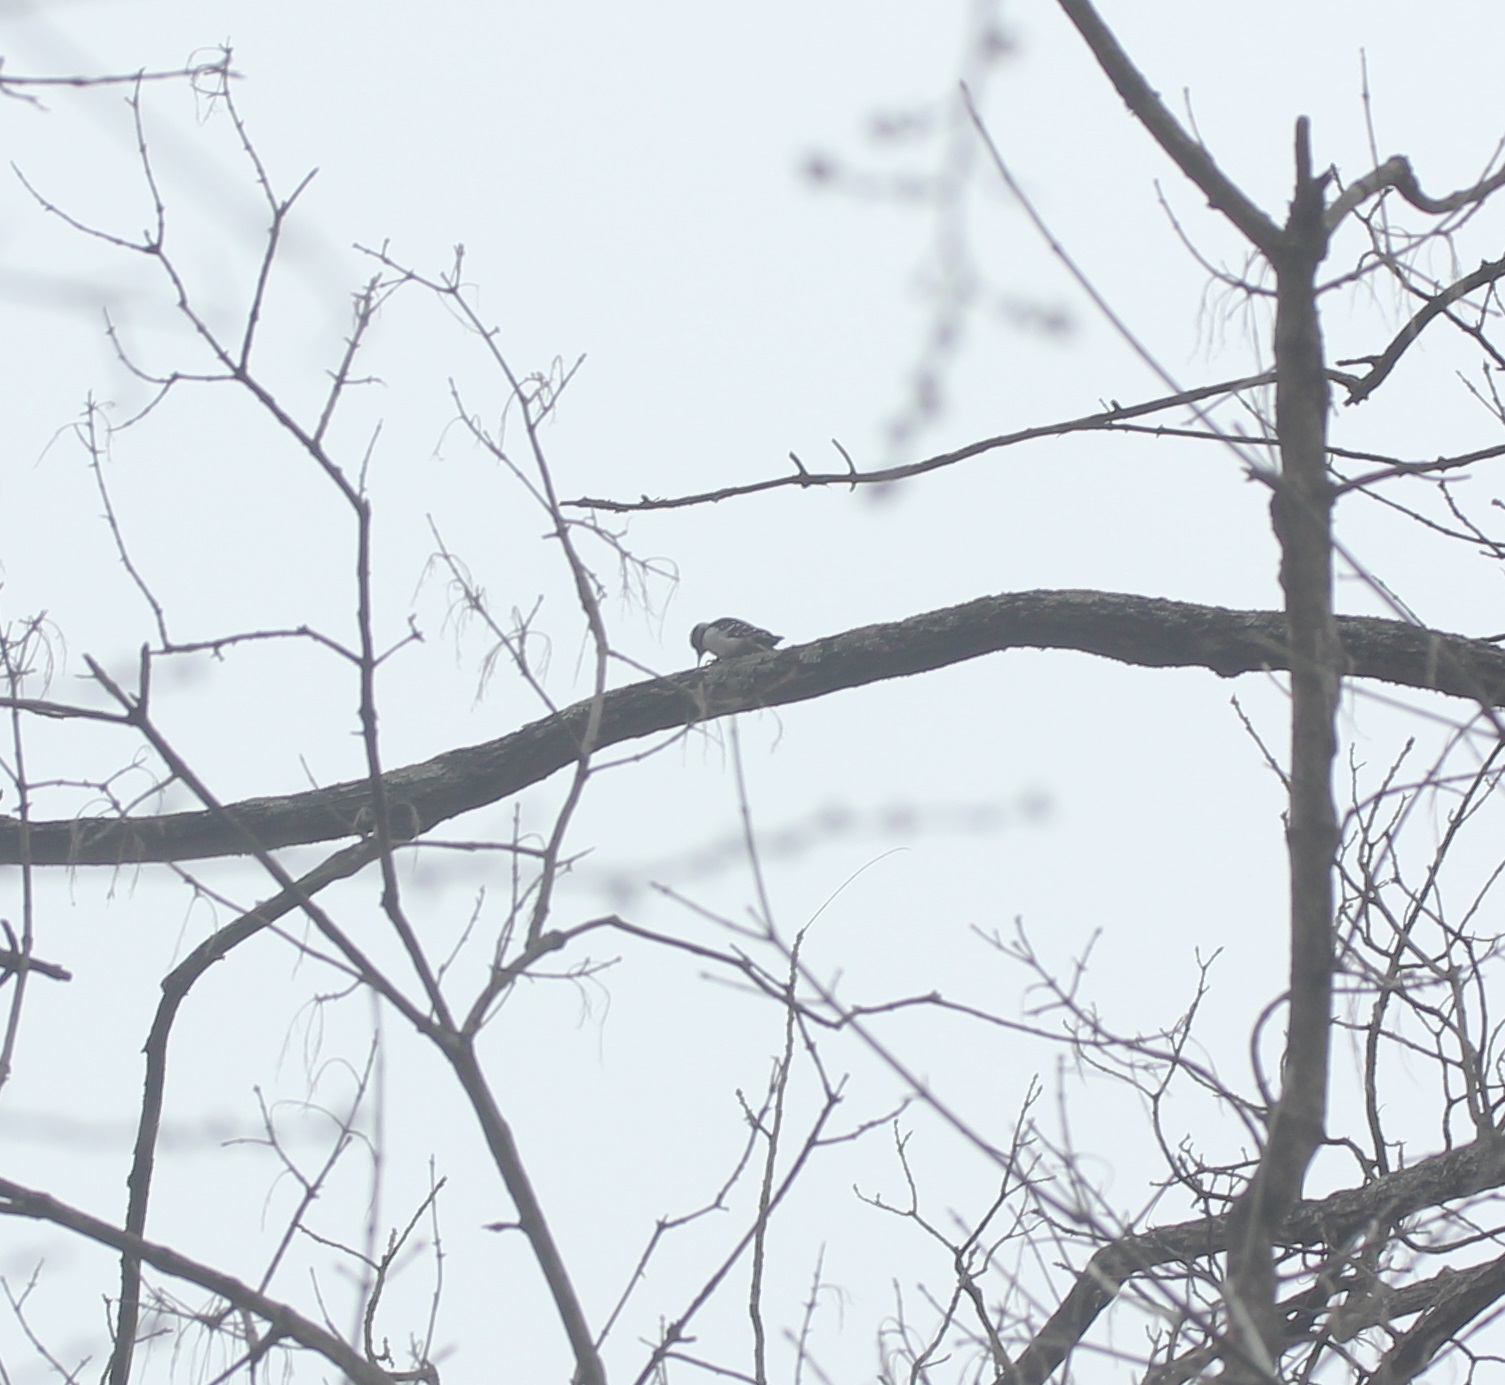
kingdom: Animalia
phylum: Chordata
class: Aves
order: Piciformes
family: Picidae
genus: Leuconotopicus
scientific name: Leuconotopicus villosus
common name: Hairy woodpecker
